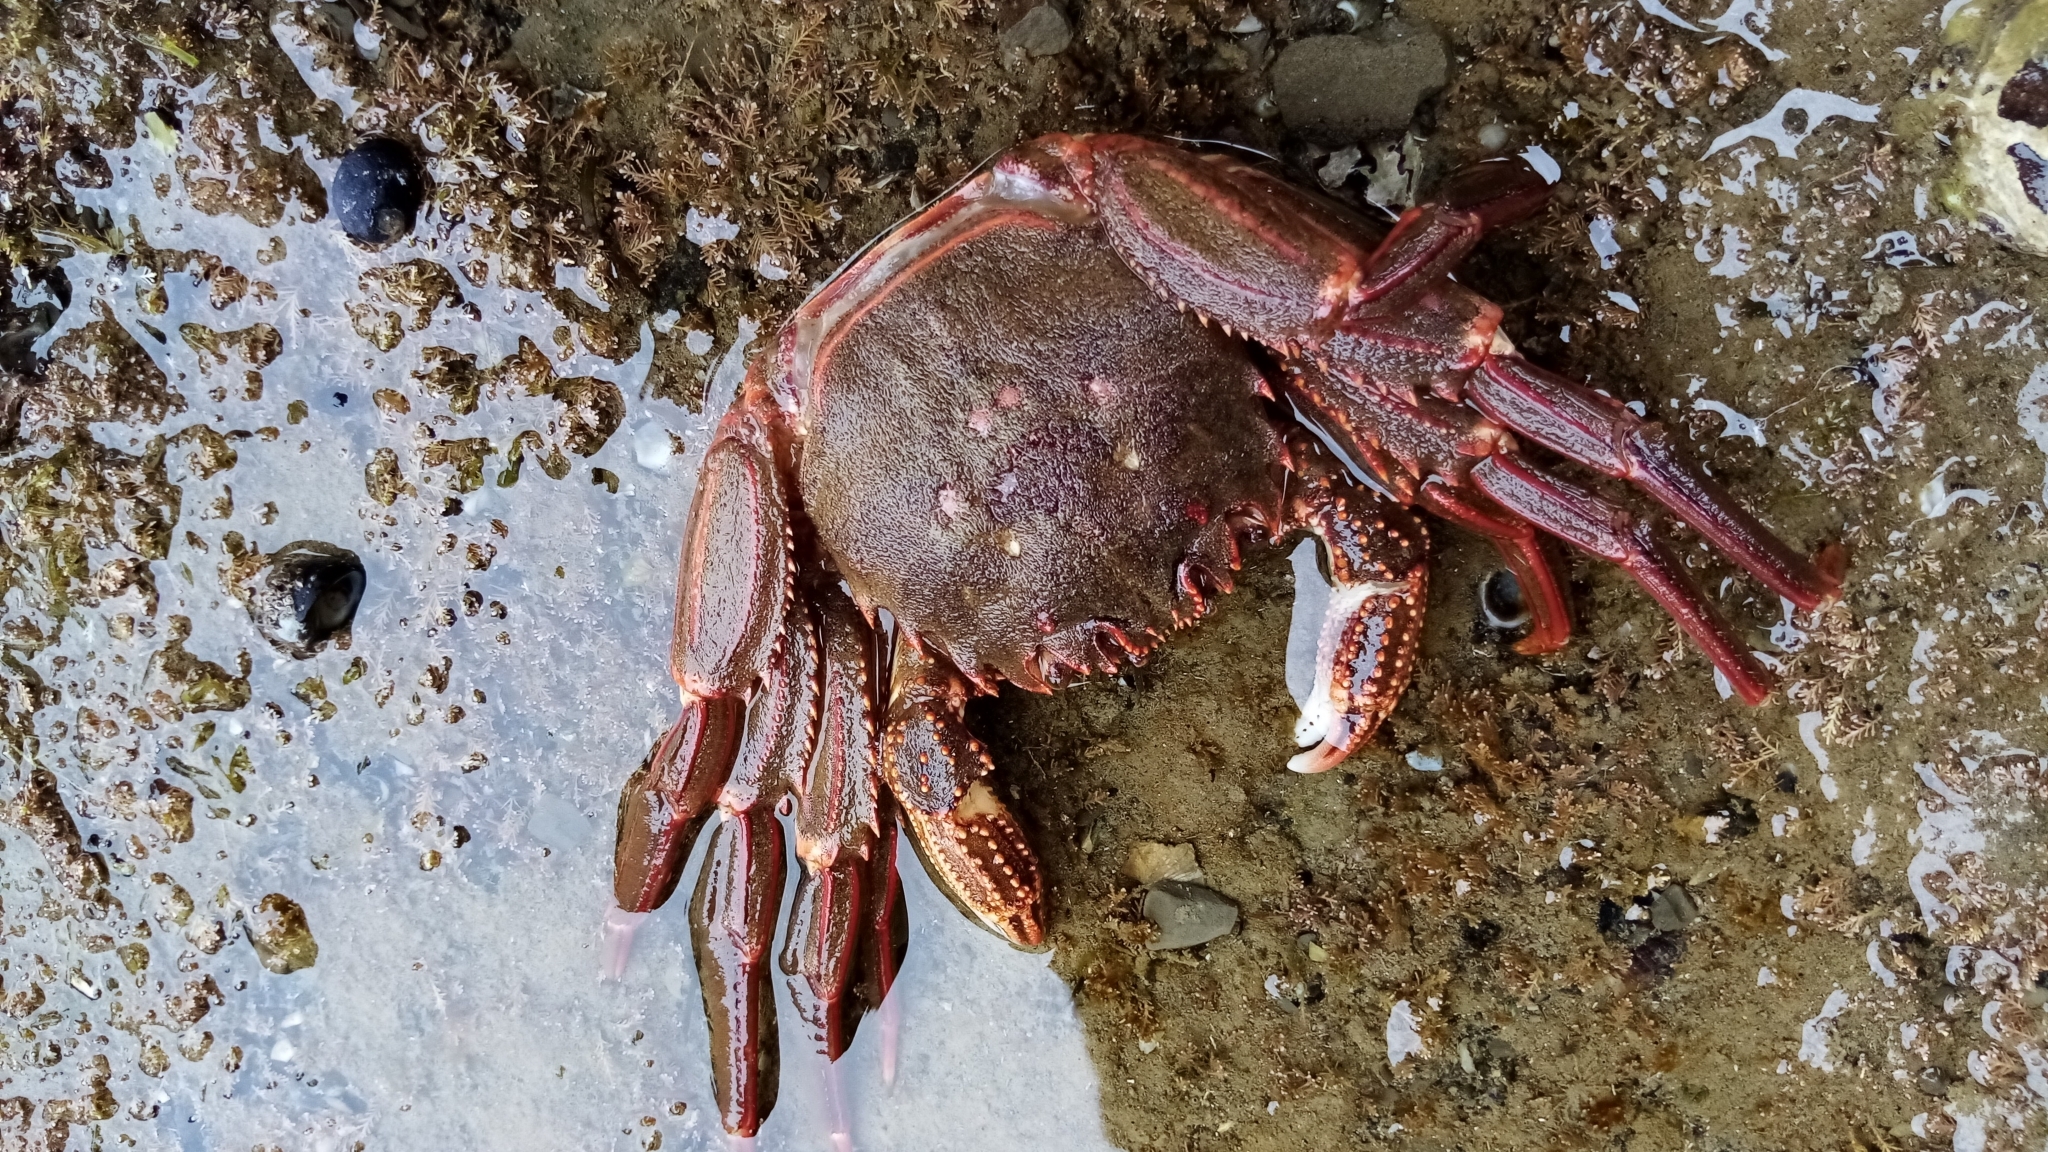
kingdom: Animalia
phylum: Arthropoda
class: Malacostraca
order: Decapoda
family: Plagusiidae
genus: Guinusia
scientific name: Guinusia chabrus
